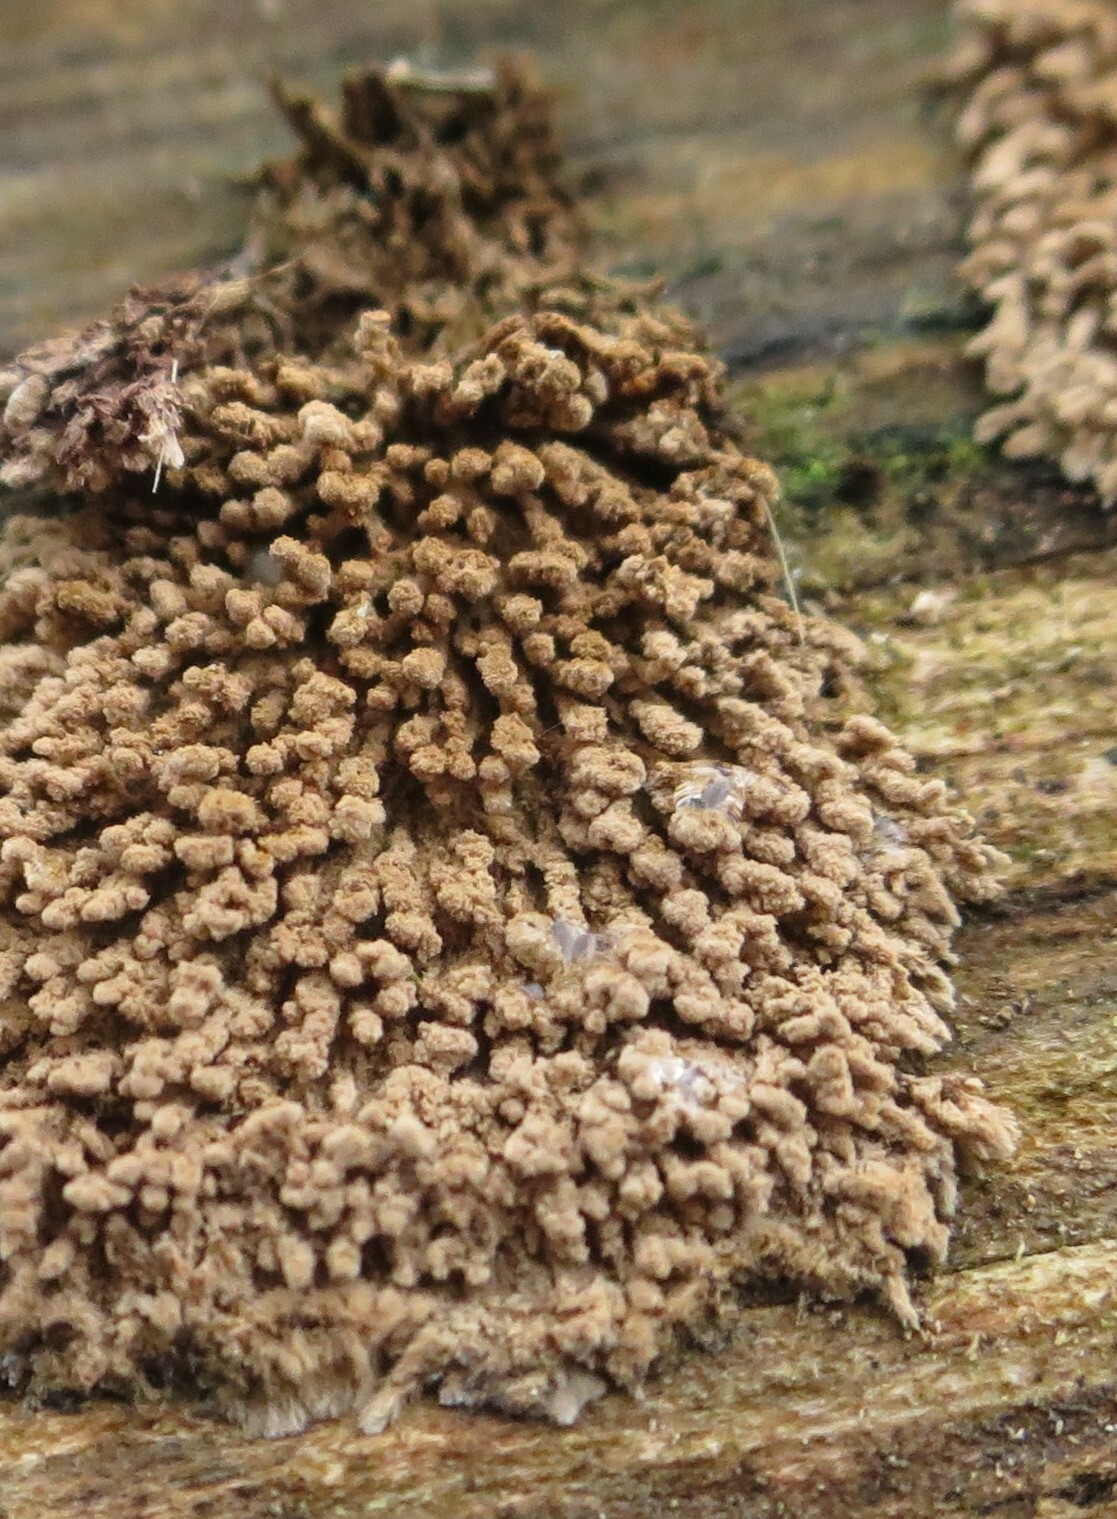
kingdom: Fungi
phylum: Ascomycota
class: Sordariomycetes
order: Xylariales
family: Hypoxylaceae
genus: Hypoxylon
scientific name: Hypoxylon howeanum
